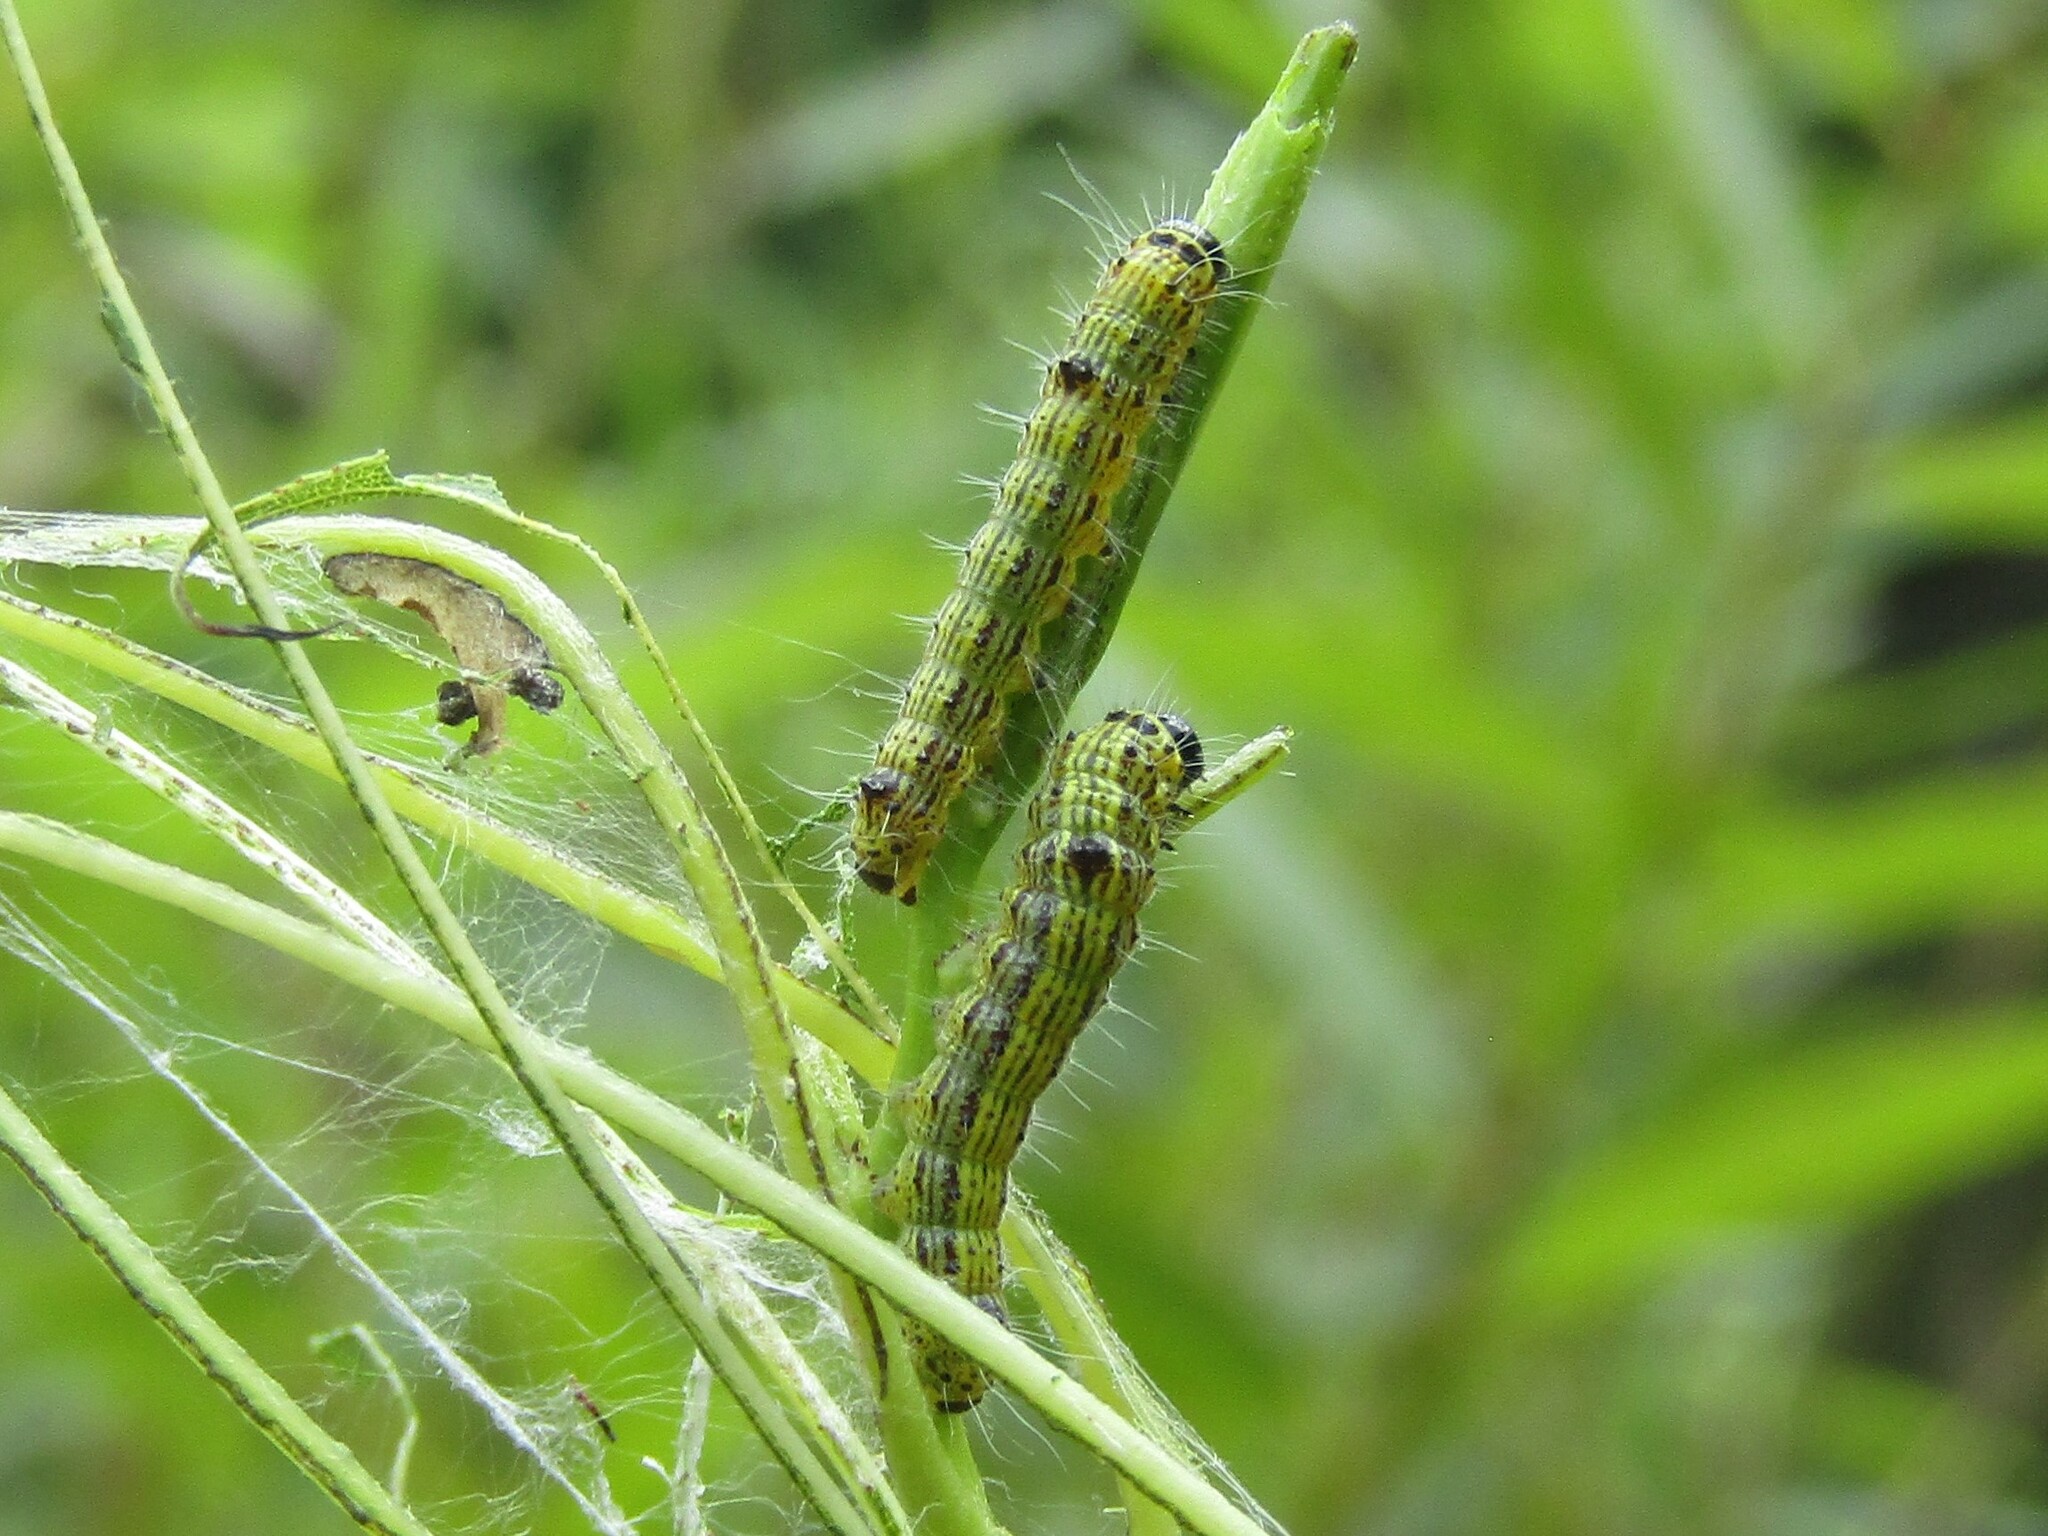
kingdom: Animalia
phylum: Arthropoda
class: Insecta
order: Lepidoptera
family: Notodontidae
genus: Clostera
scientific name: Clostera inclusa
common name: Angle-lined prominent
